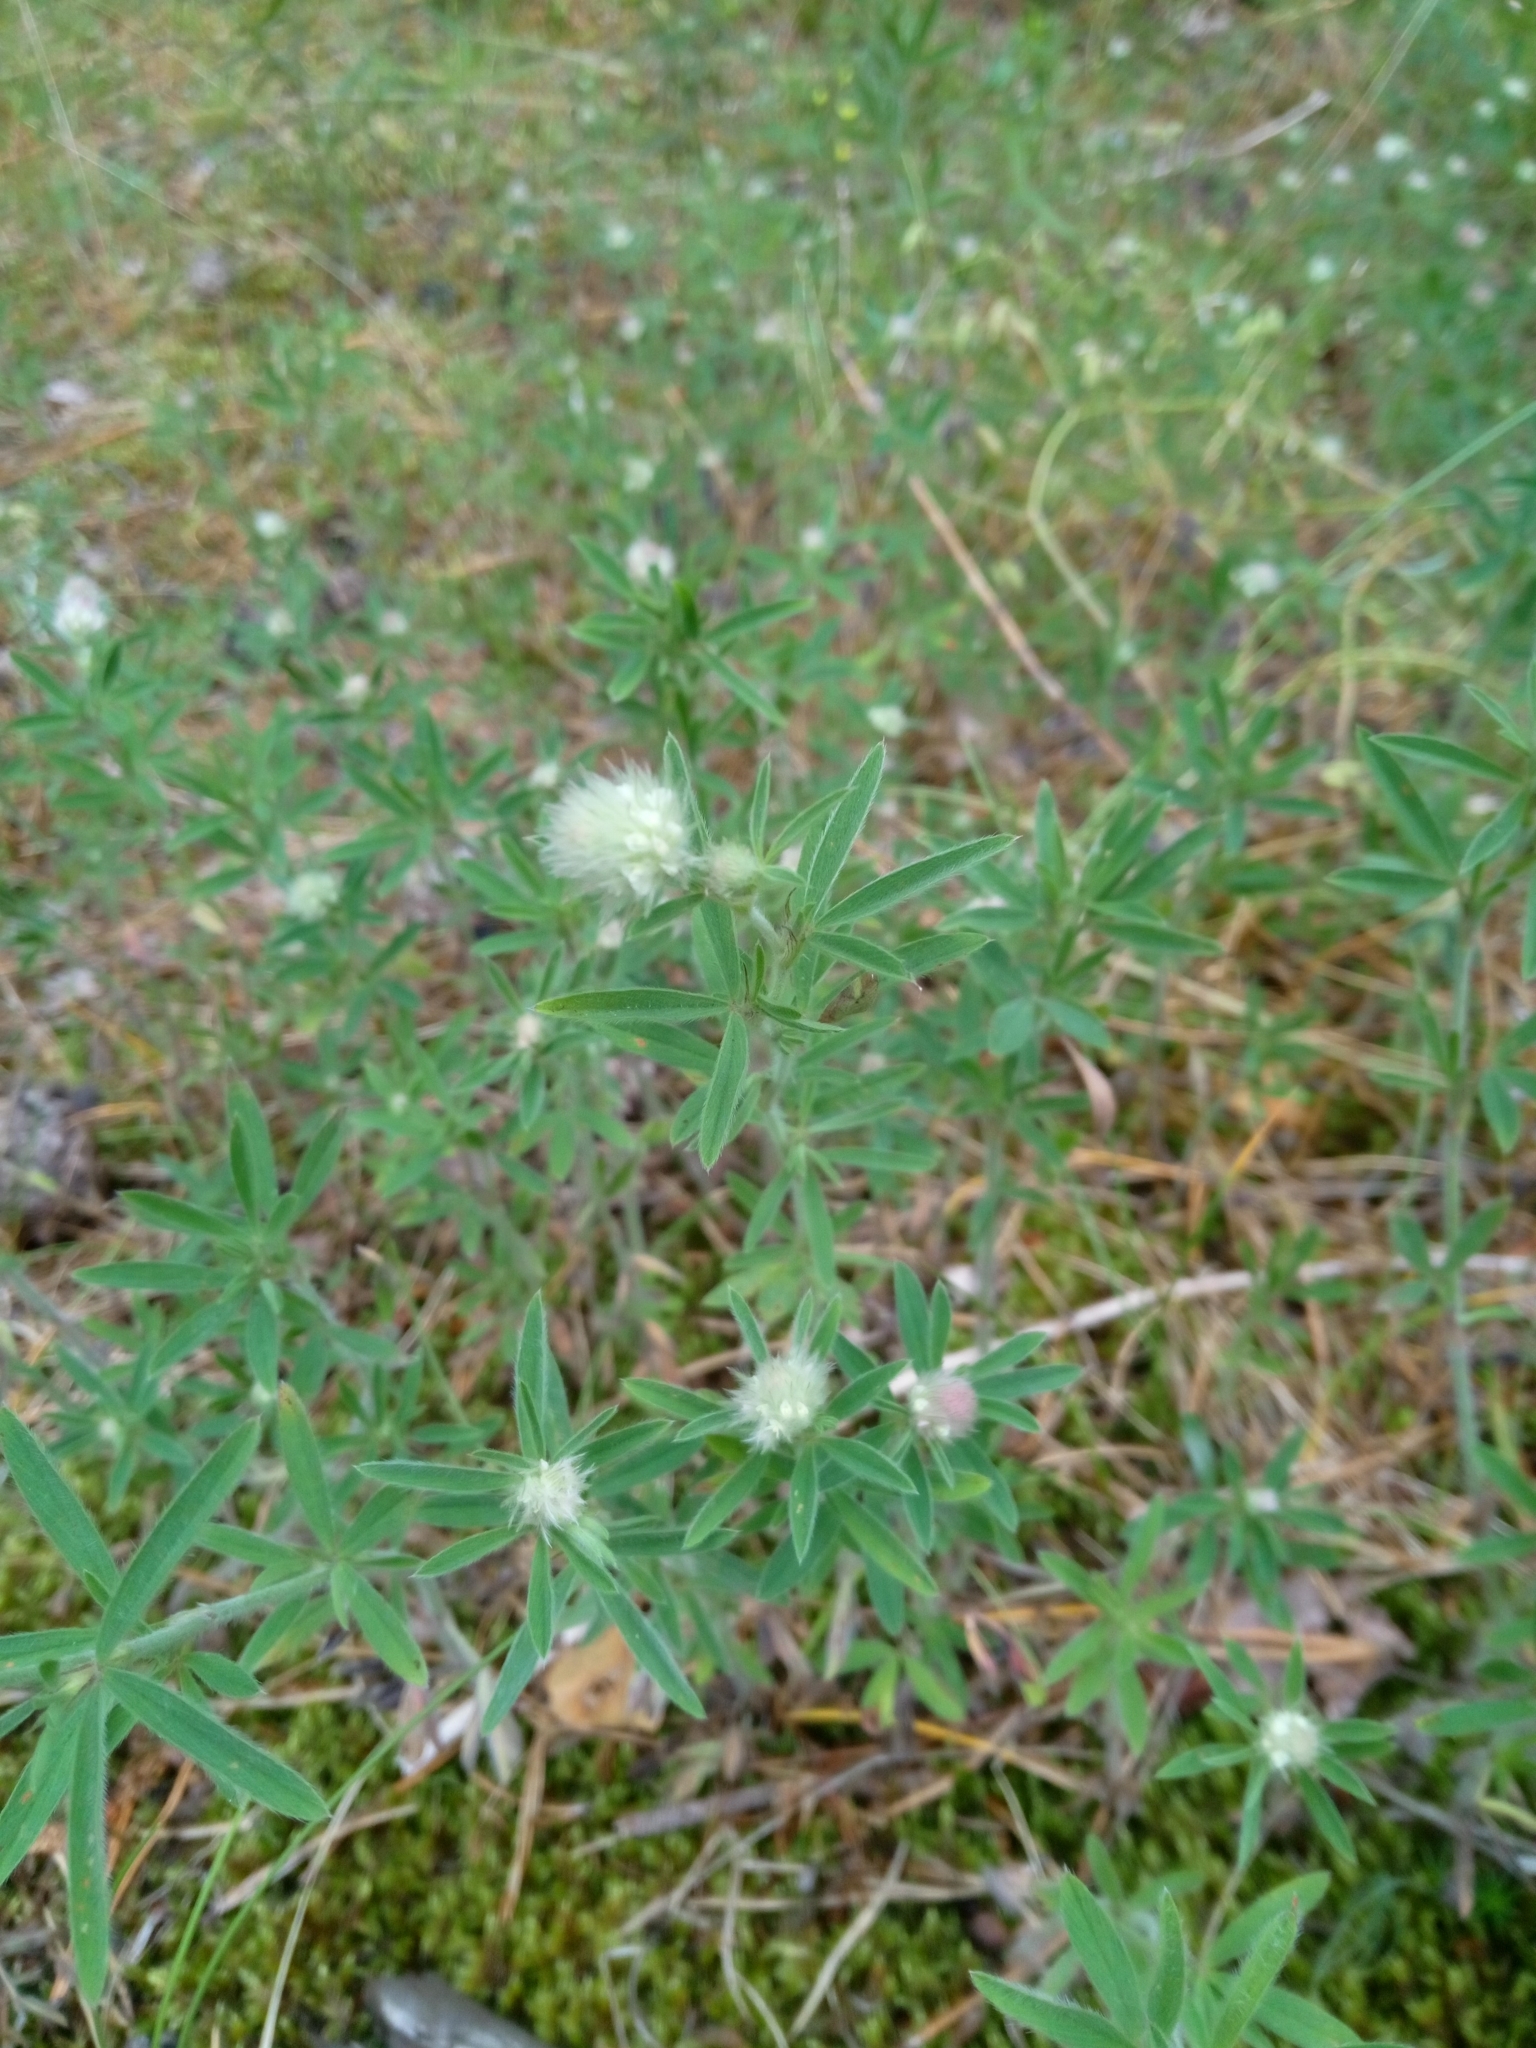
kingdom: Plantae
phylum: Tracheophyta
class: Magnoliopsida
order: Fabales
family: Fabaceae
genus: Trifolium
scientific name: Trifolium arvense
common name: Hare's-foot clover
